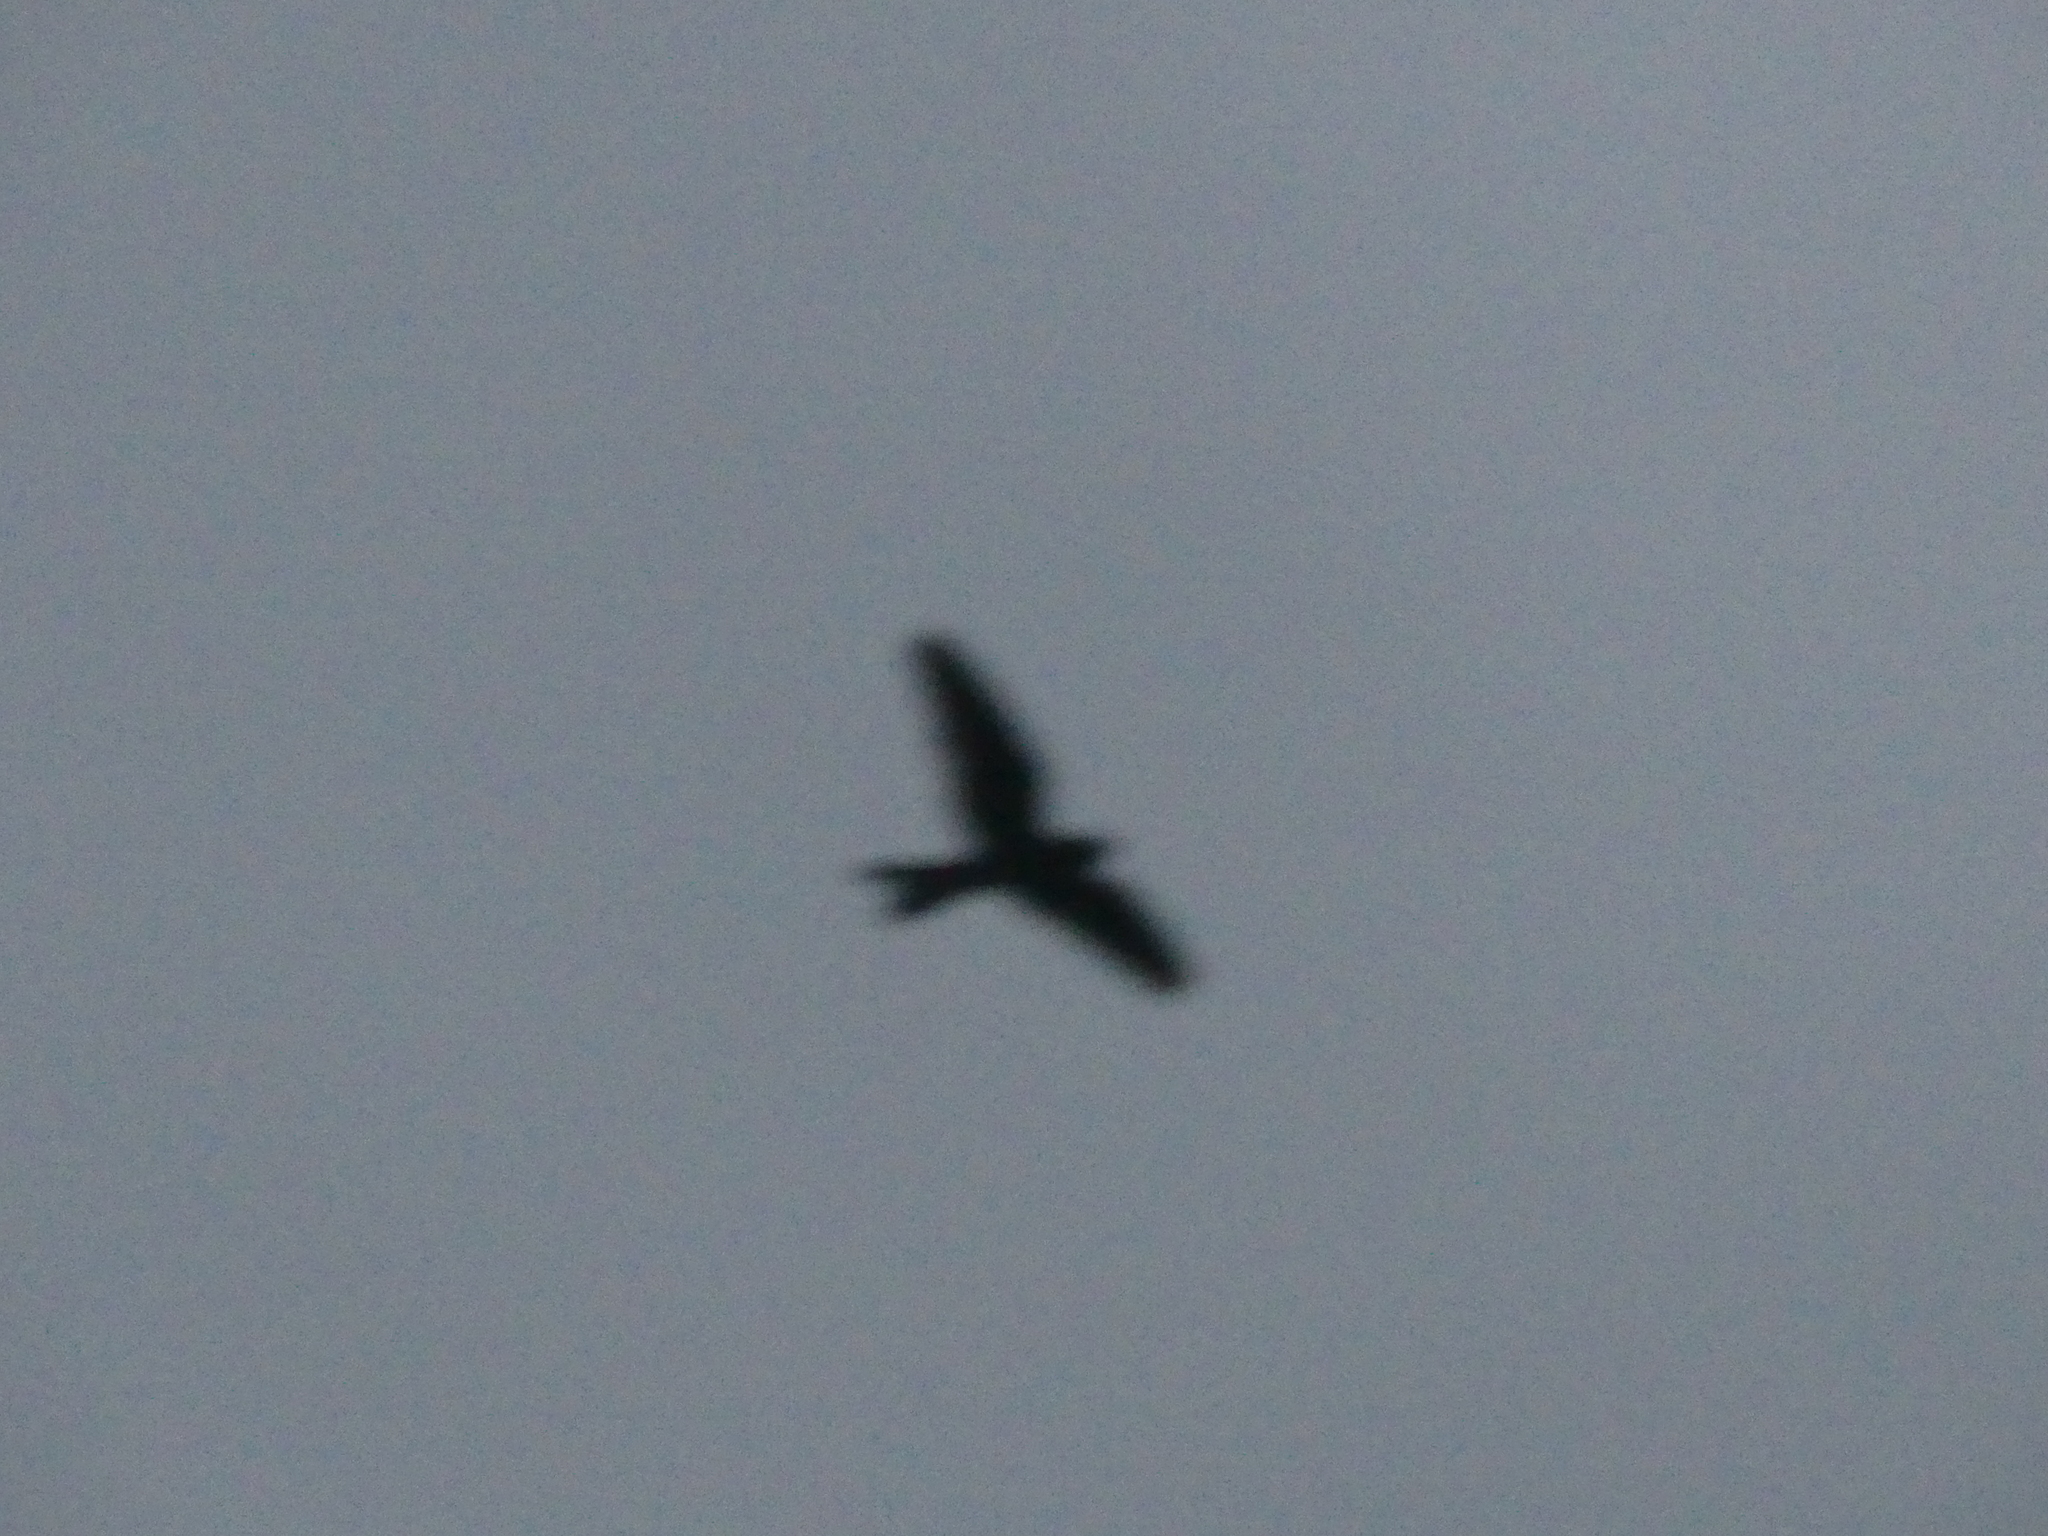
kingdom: Animalia
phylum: Chordata
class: Aves
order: Caprimulgiformes
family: Caprimulgidae
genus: Nyctiprogne
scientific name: Nyctiprogne leucopyga
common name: Band-tailed nighthawk
